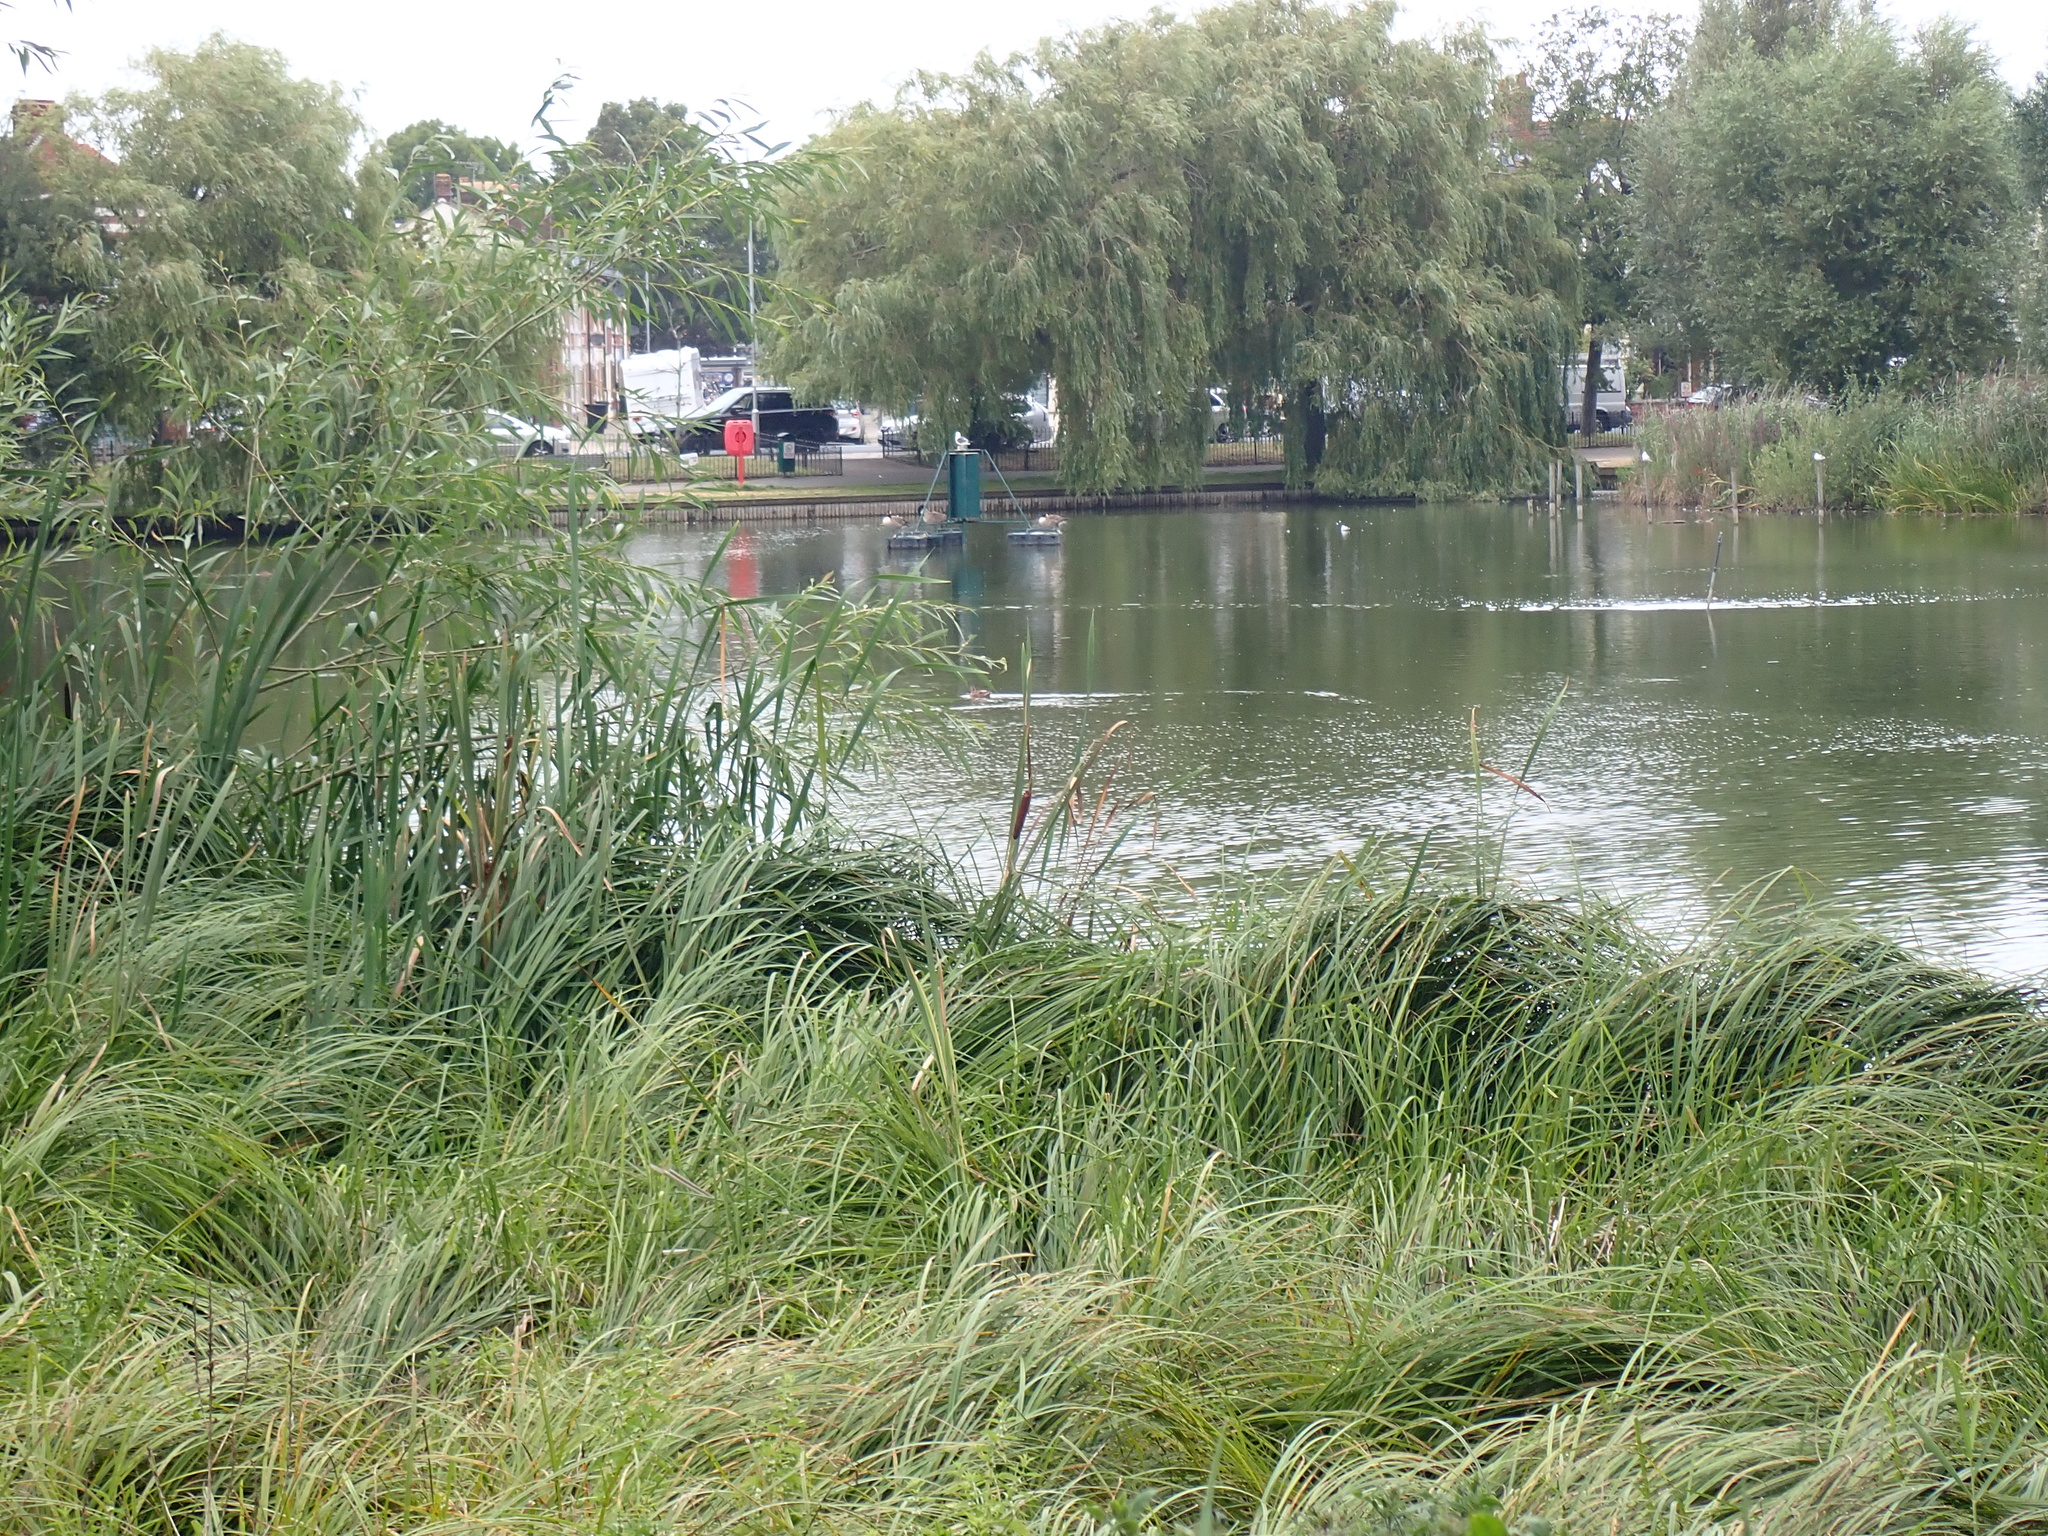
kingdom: Plantae
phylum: Tracheophyta
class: Liliopsida
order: Poales
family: Typhaceae
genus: Typha
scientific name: Typha latifolia
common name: Broadleaf cattail
